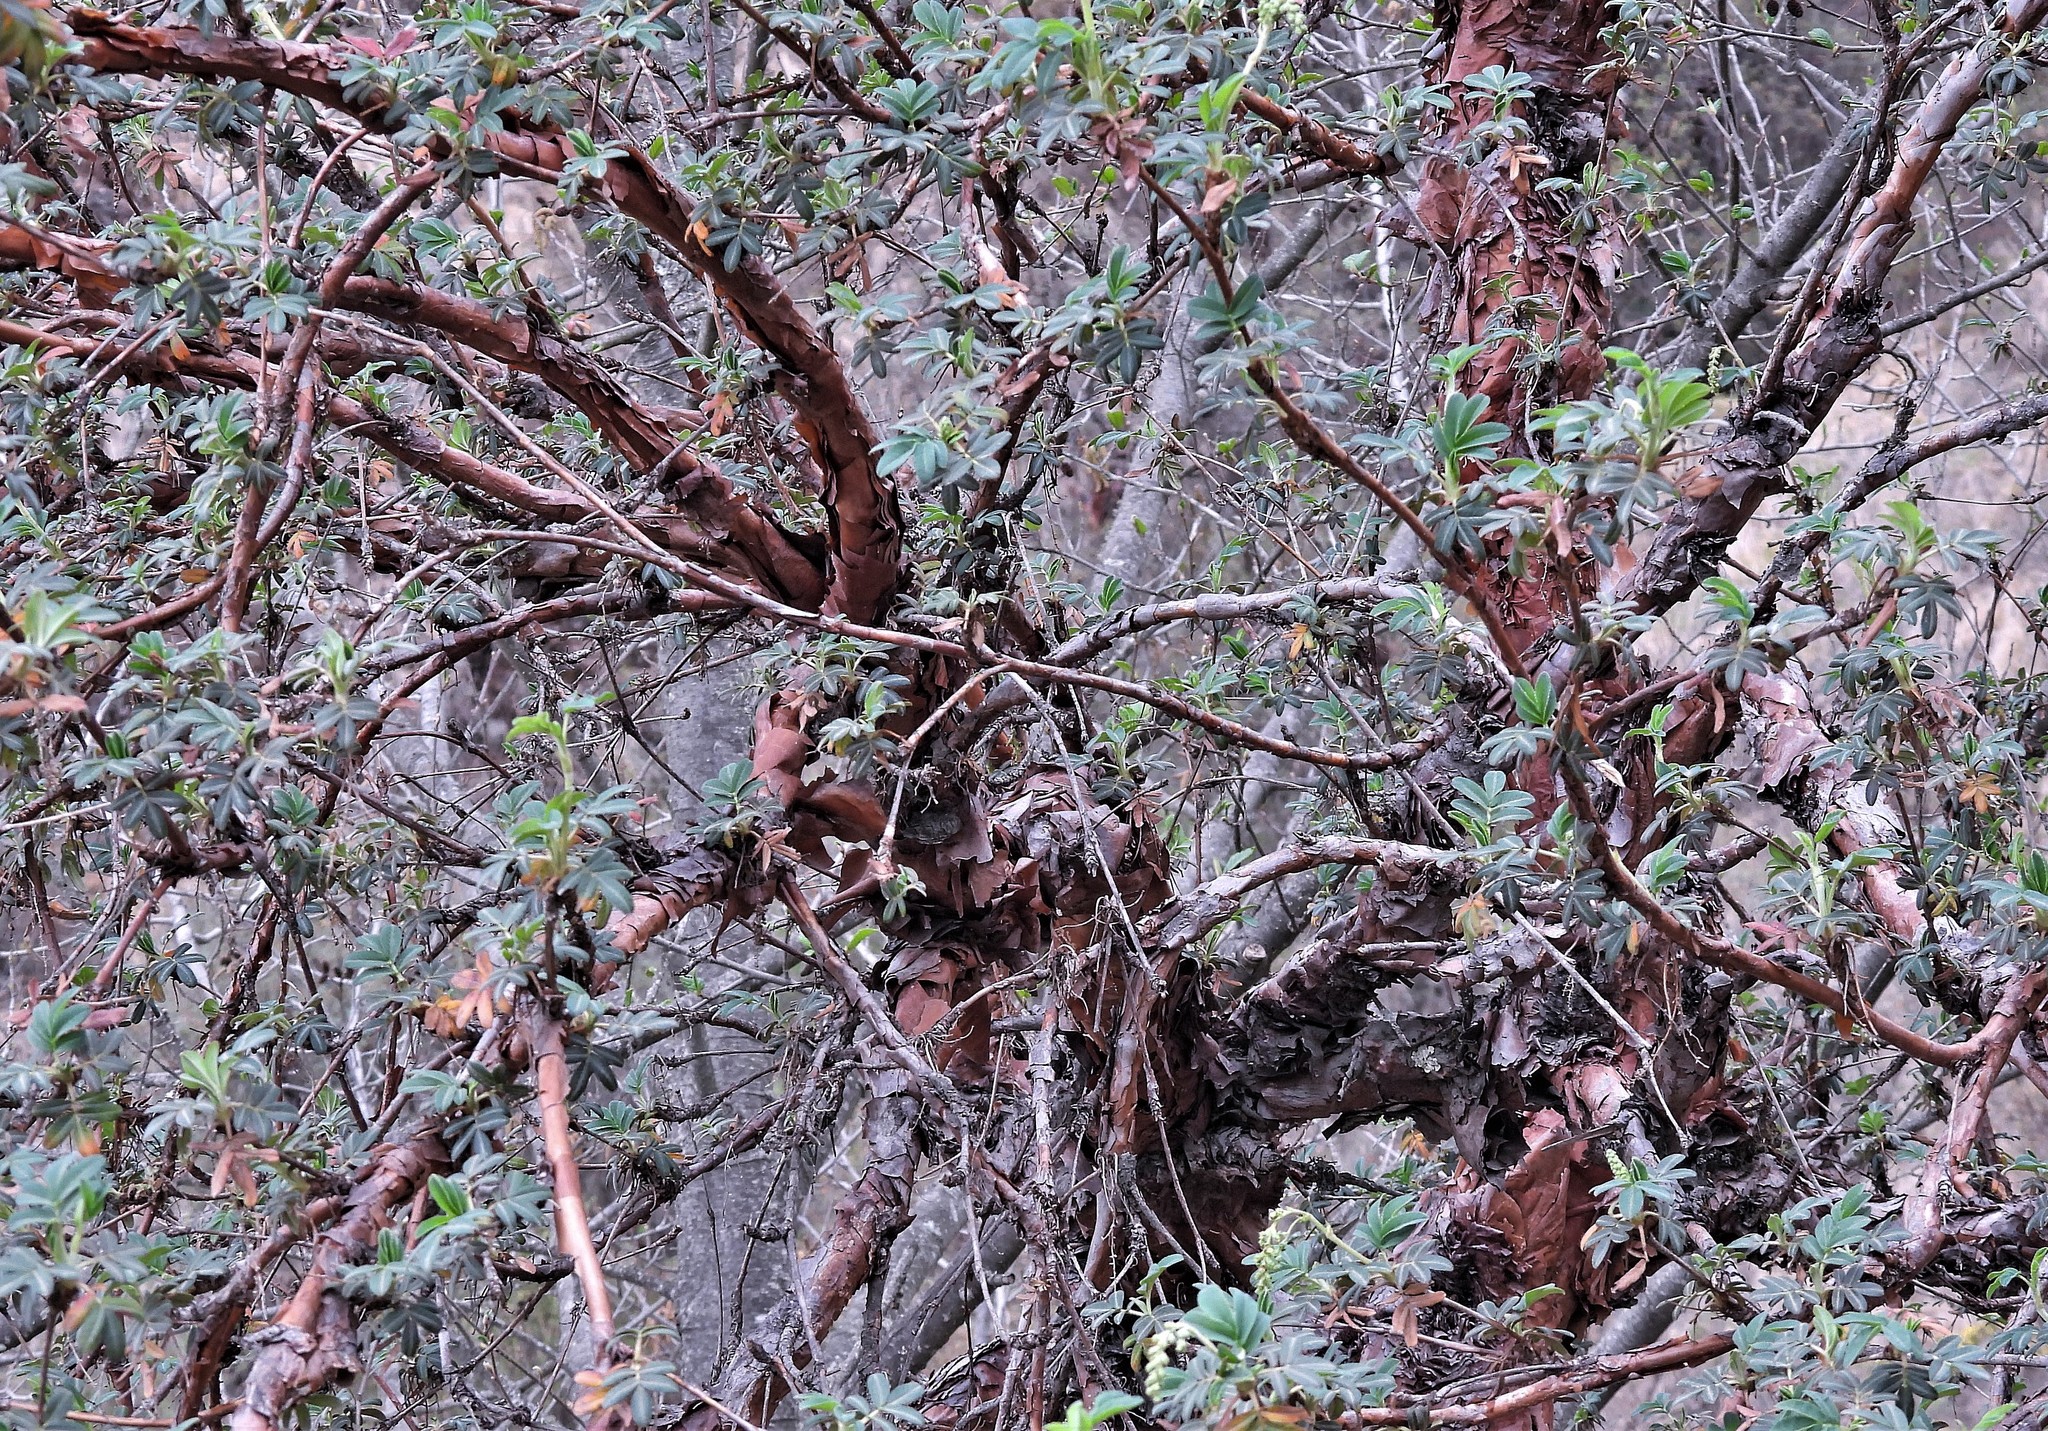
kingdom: Plantae
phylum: Tracheophyta
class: Magnoliopsida
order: Rosales
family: Rosaceae
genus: Polylepis
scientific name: Polylepis australis
